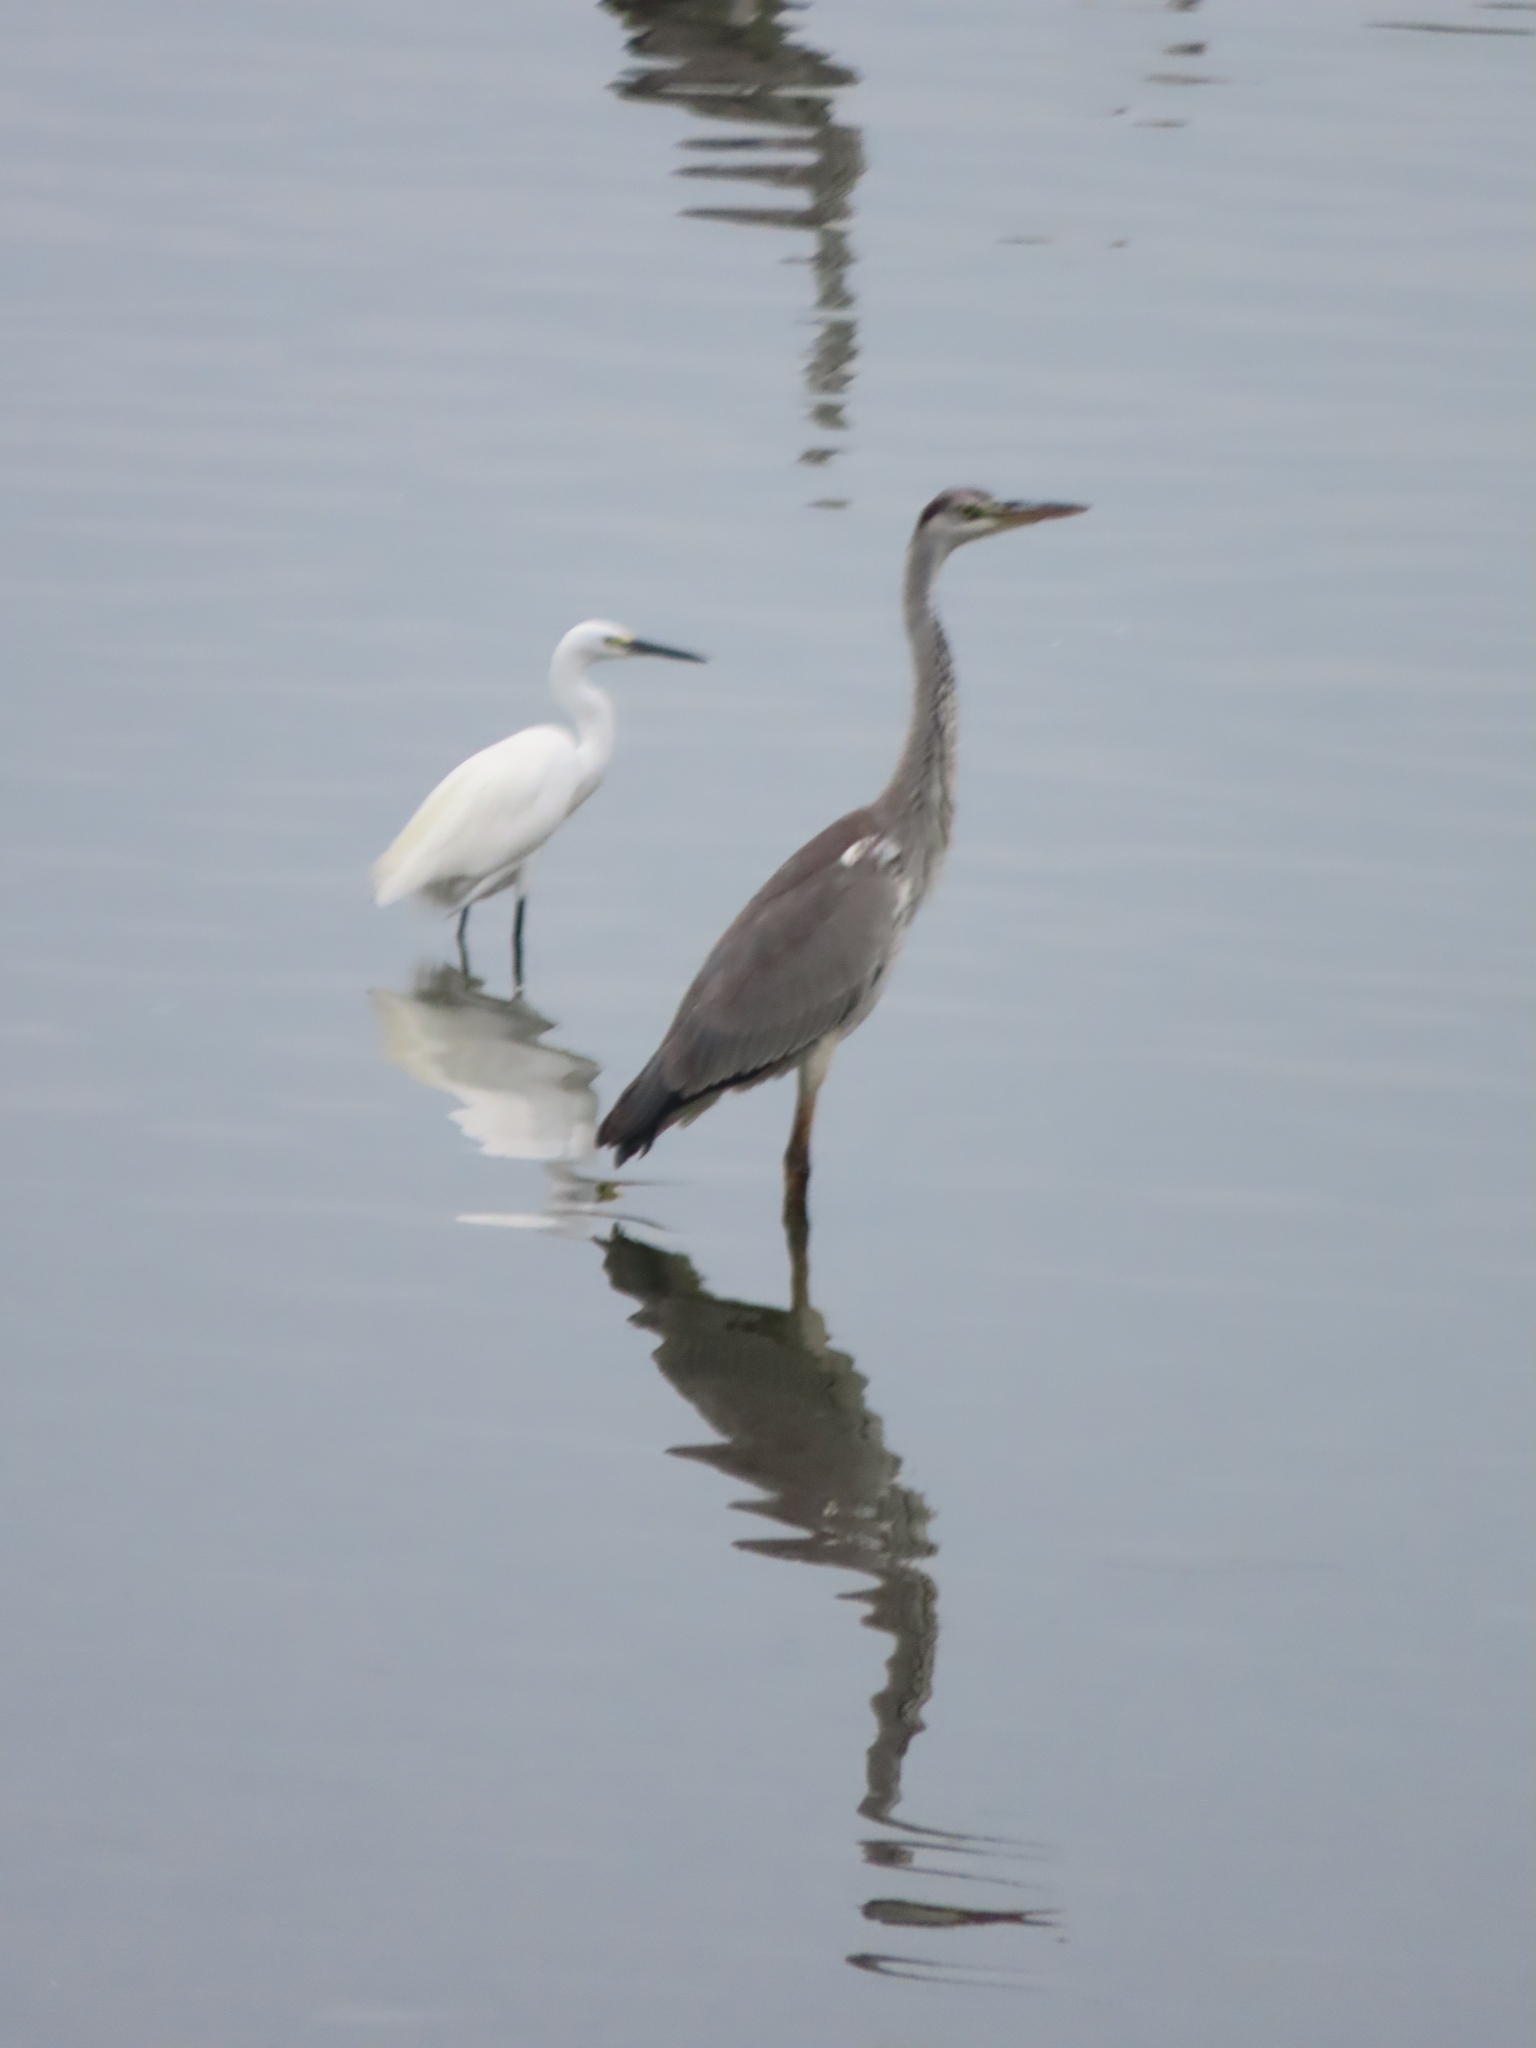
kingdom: Animalia
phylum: Chordata
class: Aves
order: Pelecaniformes
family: Ardeidae
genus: Egretta
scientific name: Egretta garzetta
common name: Little egret
